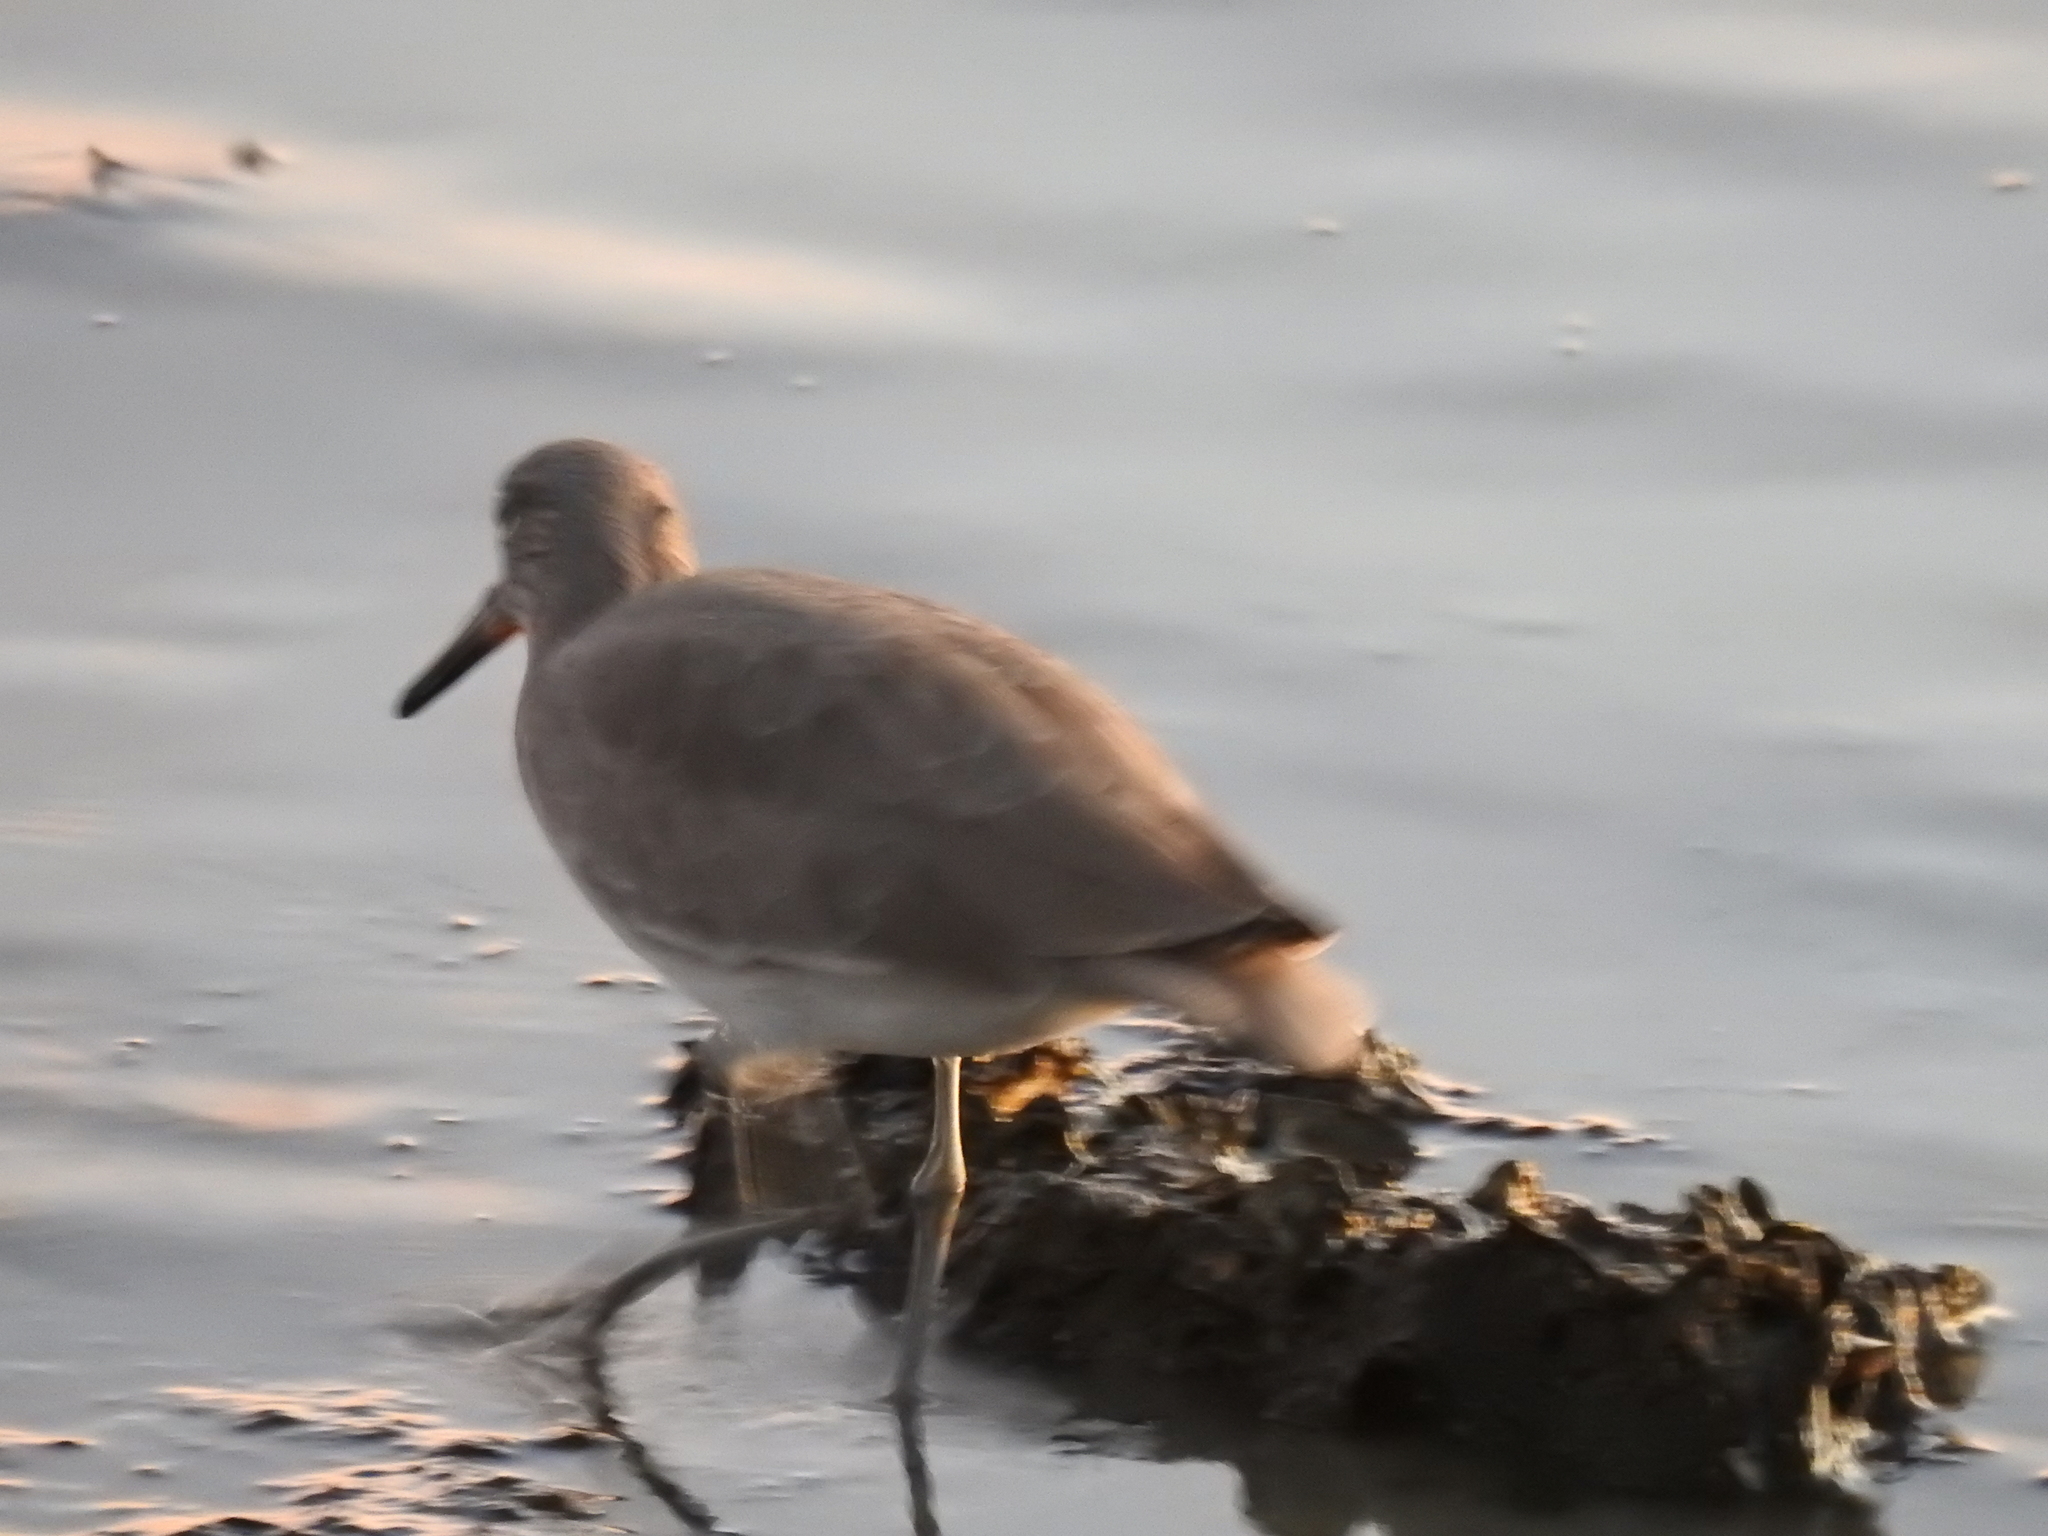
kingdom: Animalia
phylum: Chordata
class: Aves
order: Charadriiformes
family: Scolopacidae
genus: Tringa
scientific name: Tringa semipalmata
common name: Willet
